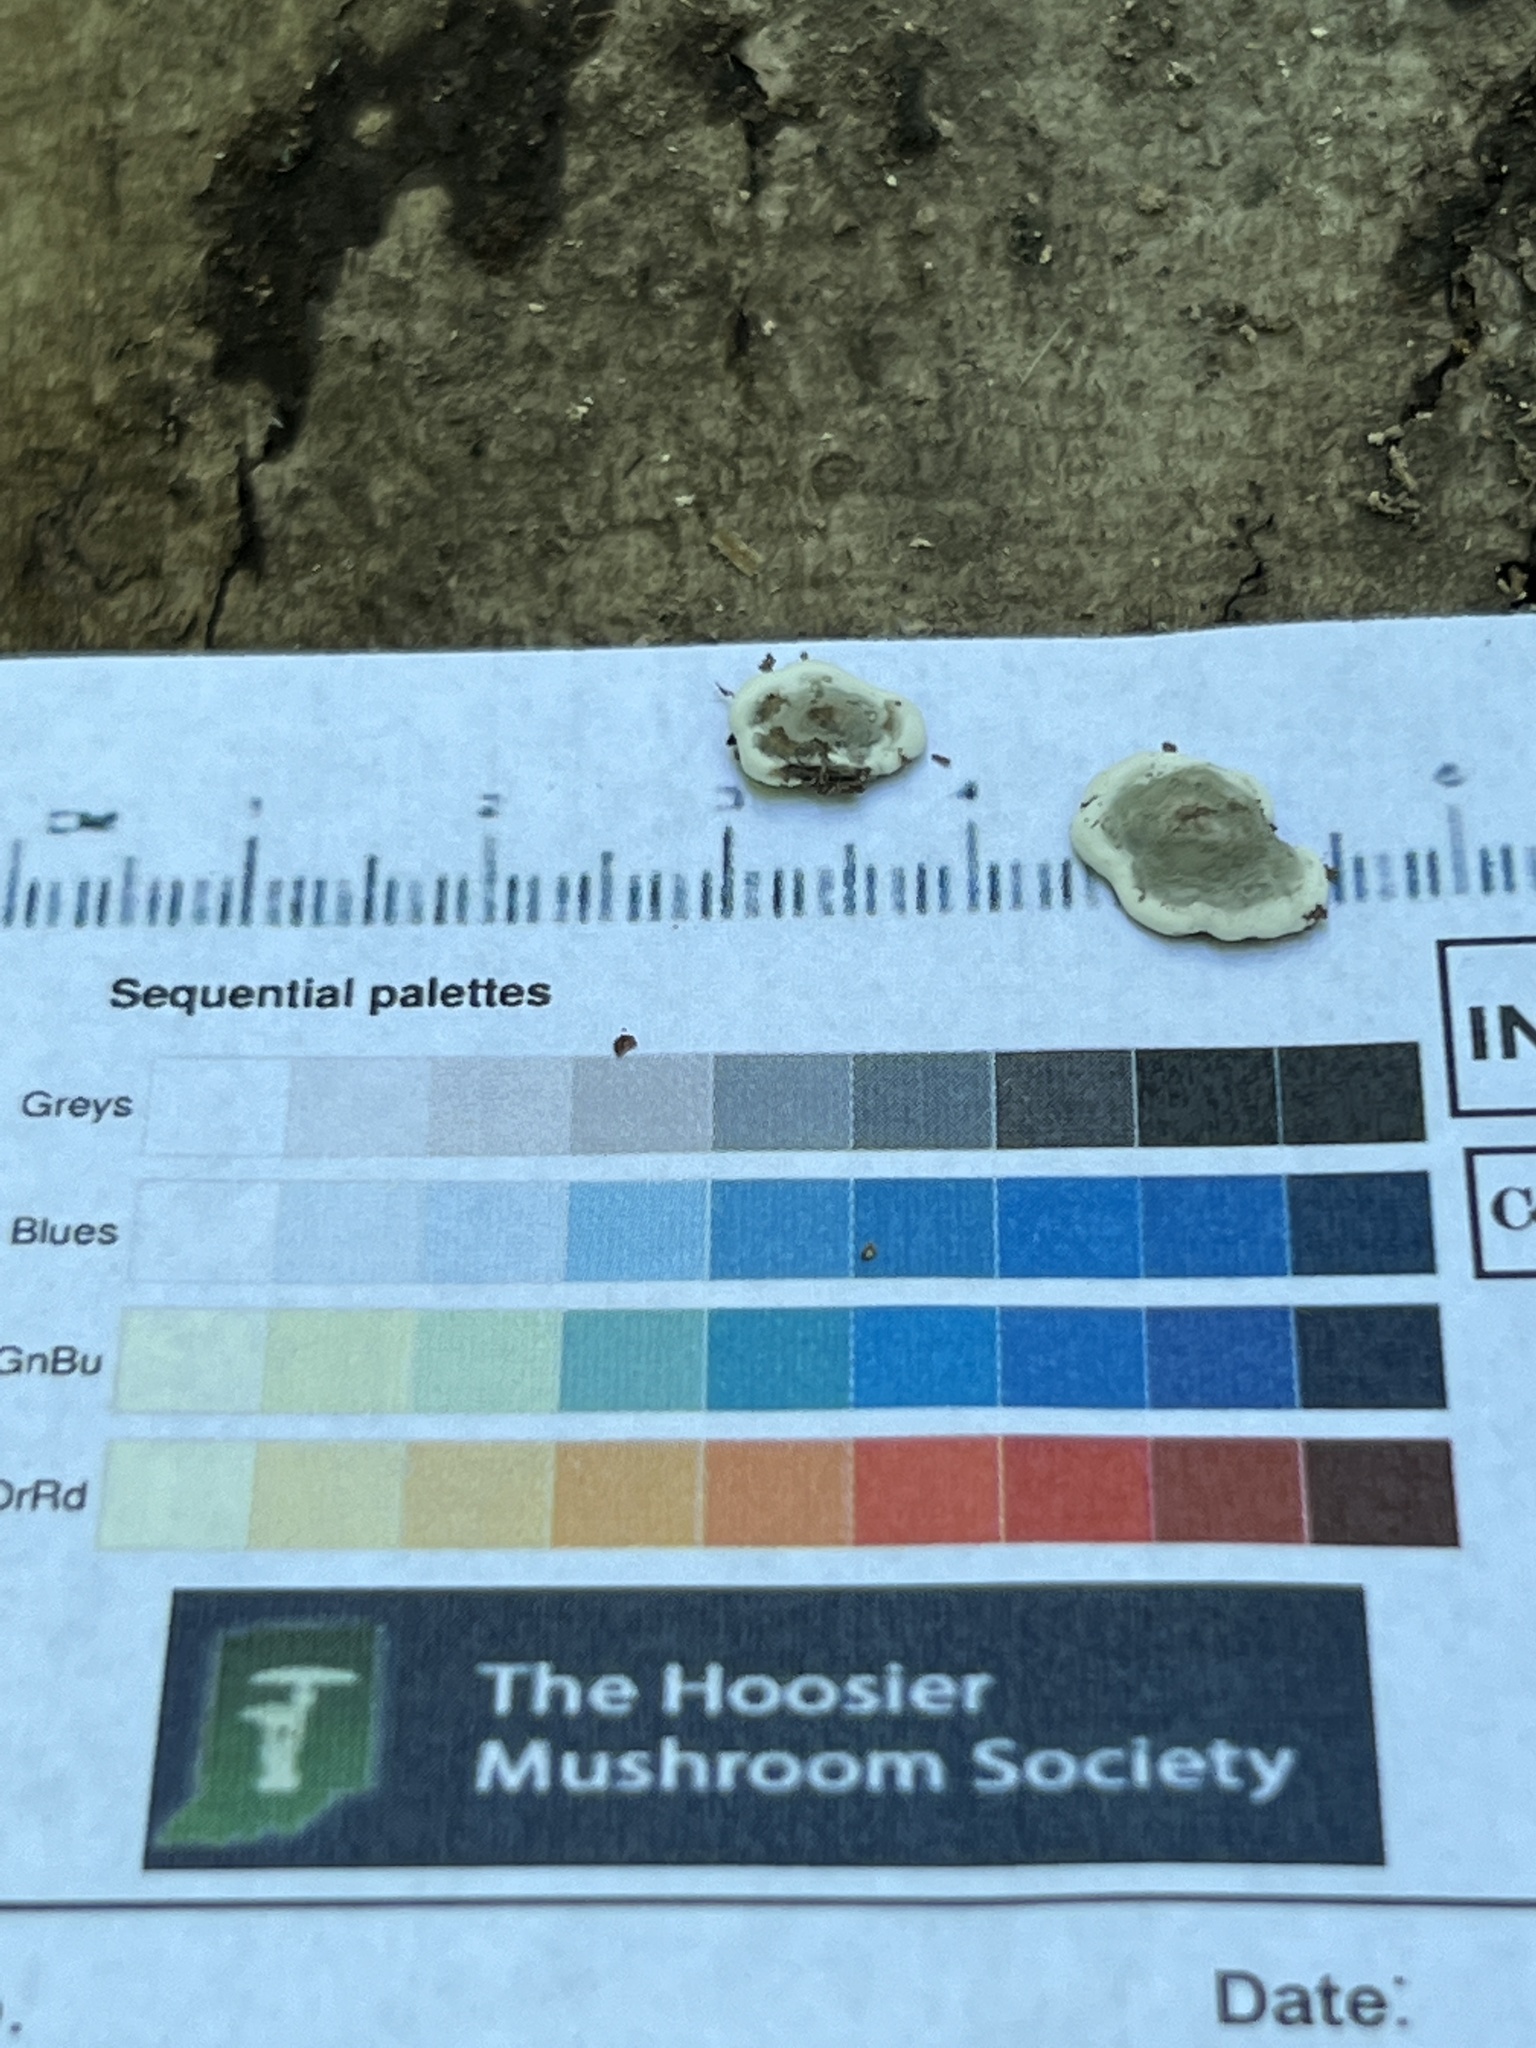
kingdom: Fungi
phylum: Ascomycota
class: Sordariomycetes
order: Xylariales
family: Xylariaceae
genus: Kretzschmaria
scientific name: Kretzschmaria hedjaroudei
